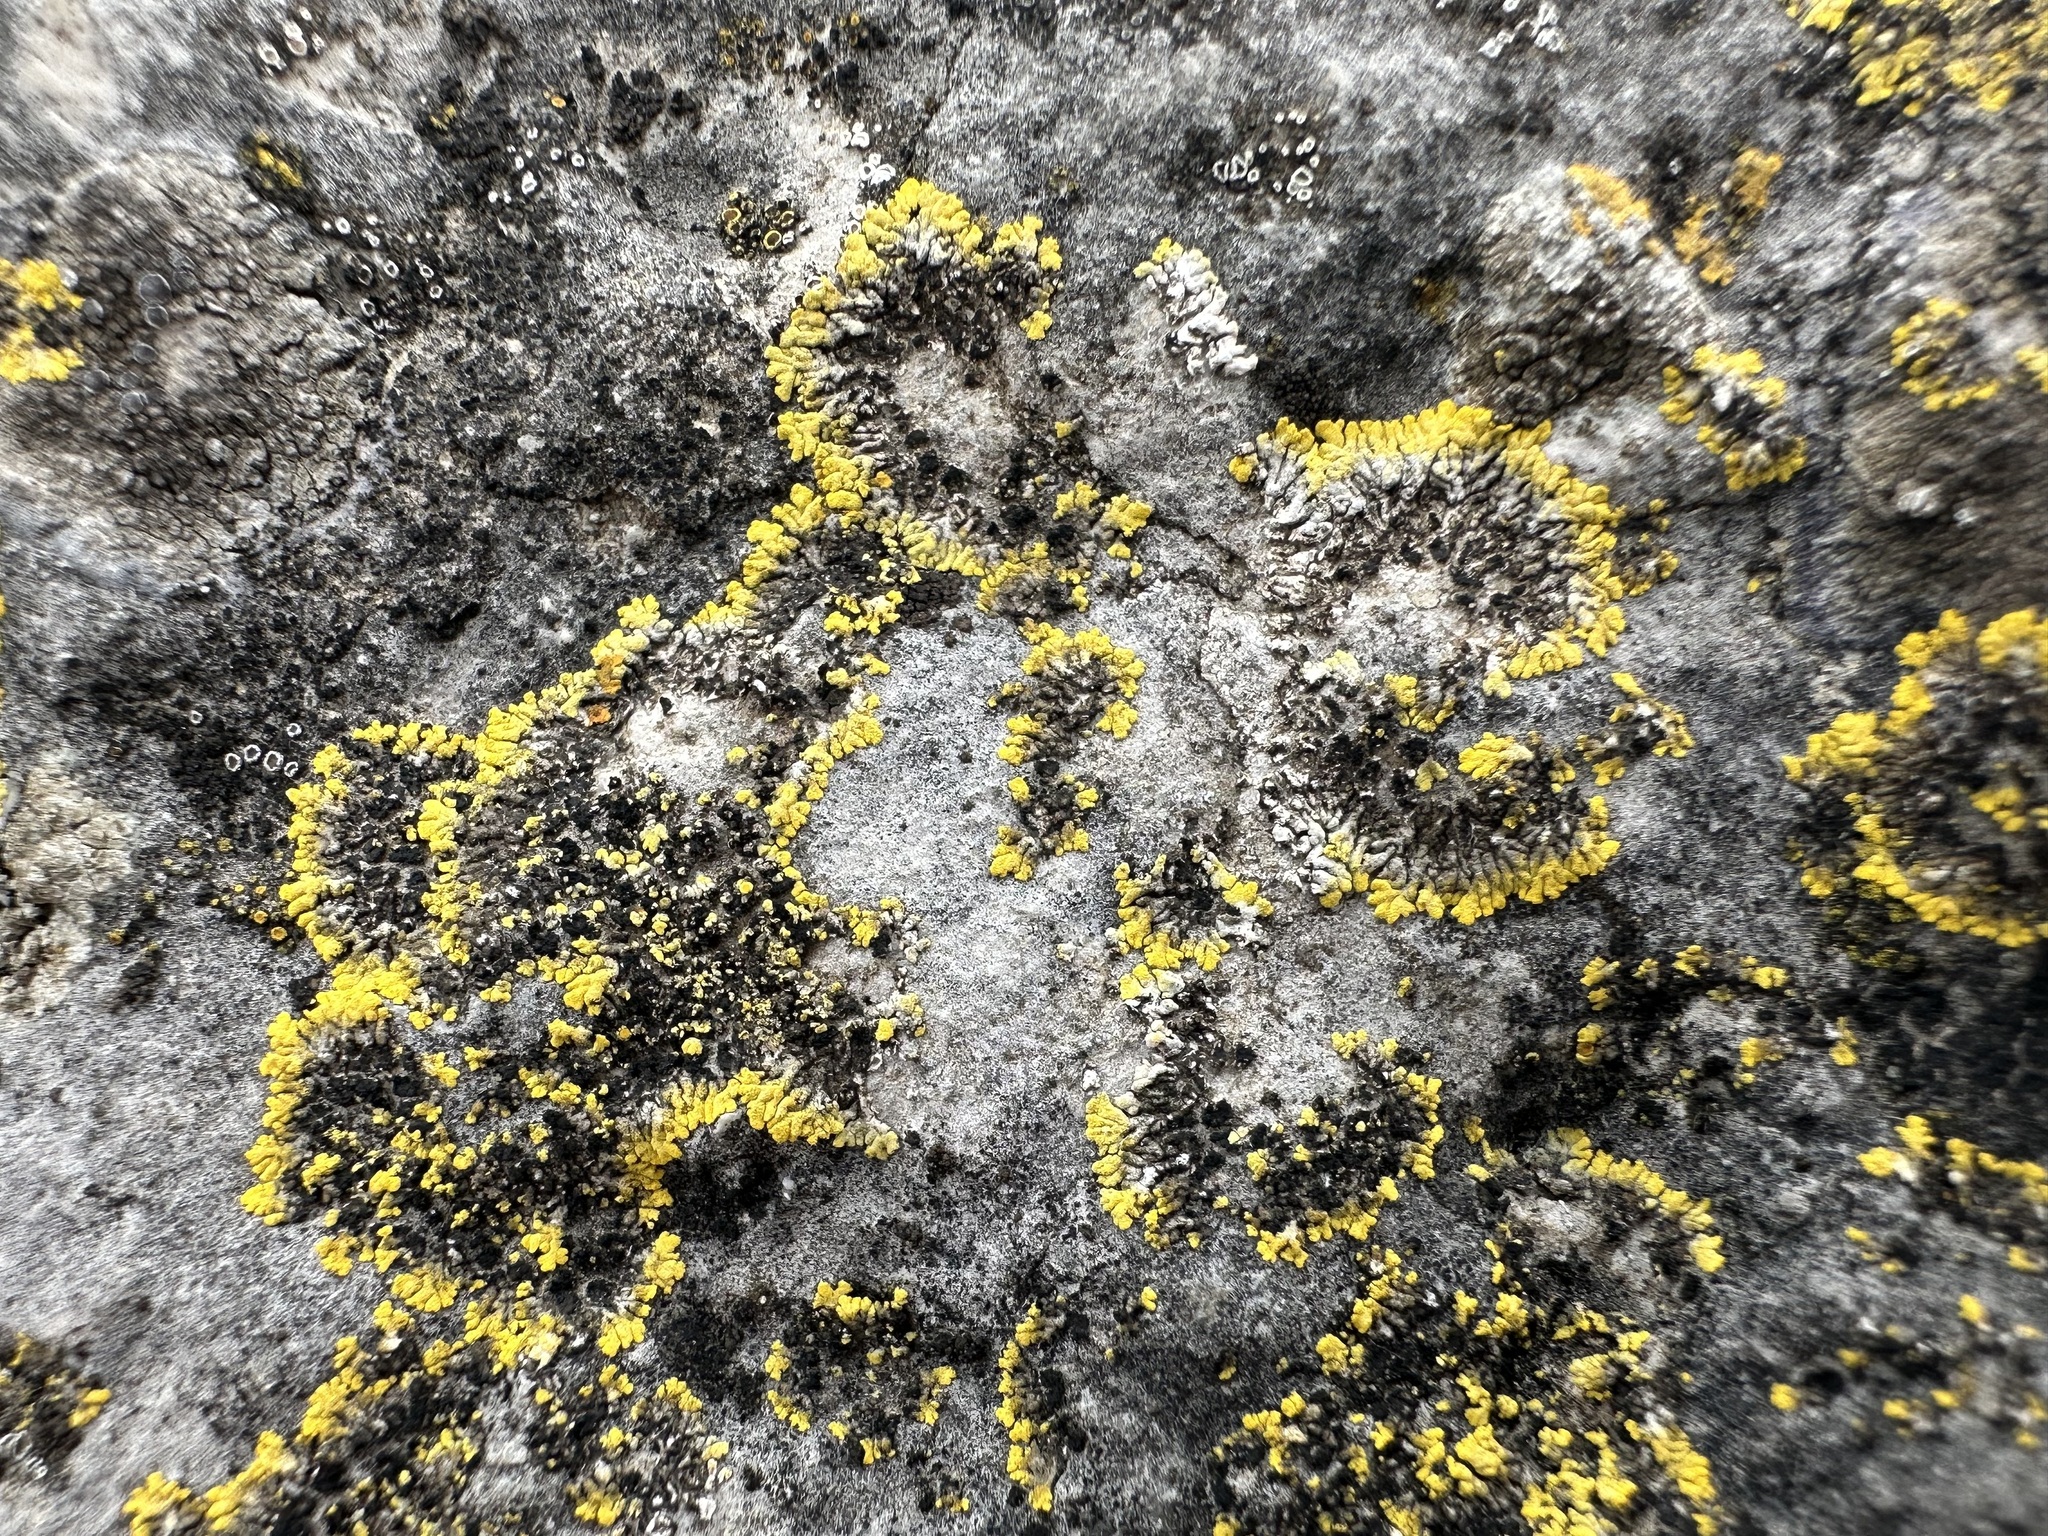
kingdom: Fungi
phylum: Ascomycota
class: Candelariomycetes
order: Candelariales
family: Candelariaceae
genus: Candelariella
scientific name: Candelariella medians
